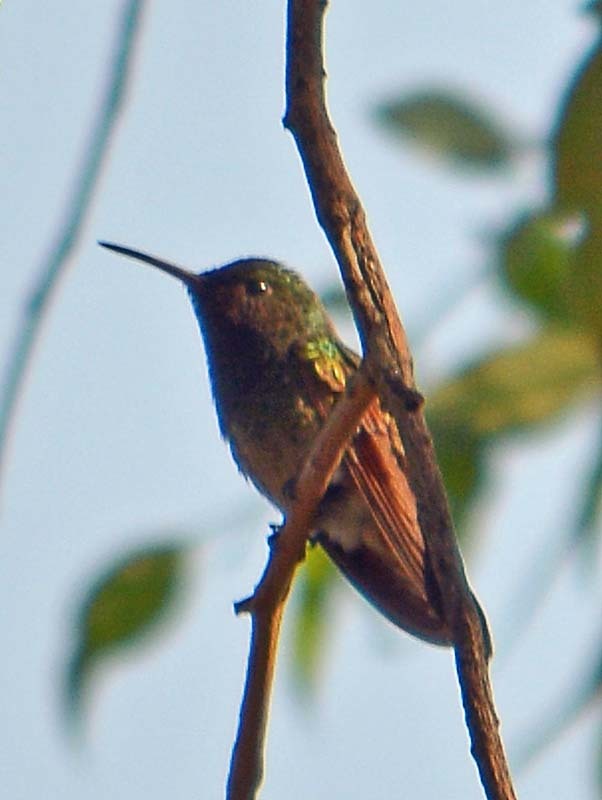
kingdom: Animalia
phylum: Chordata
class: Aves
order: Apodiformes
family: Trochilidae
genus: Saucerottia
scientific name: Saucerottia beryllina
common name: Berylline hummingbird
